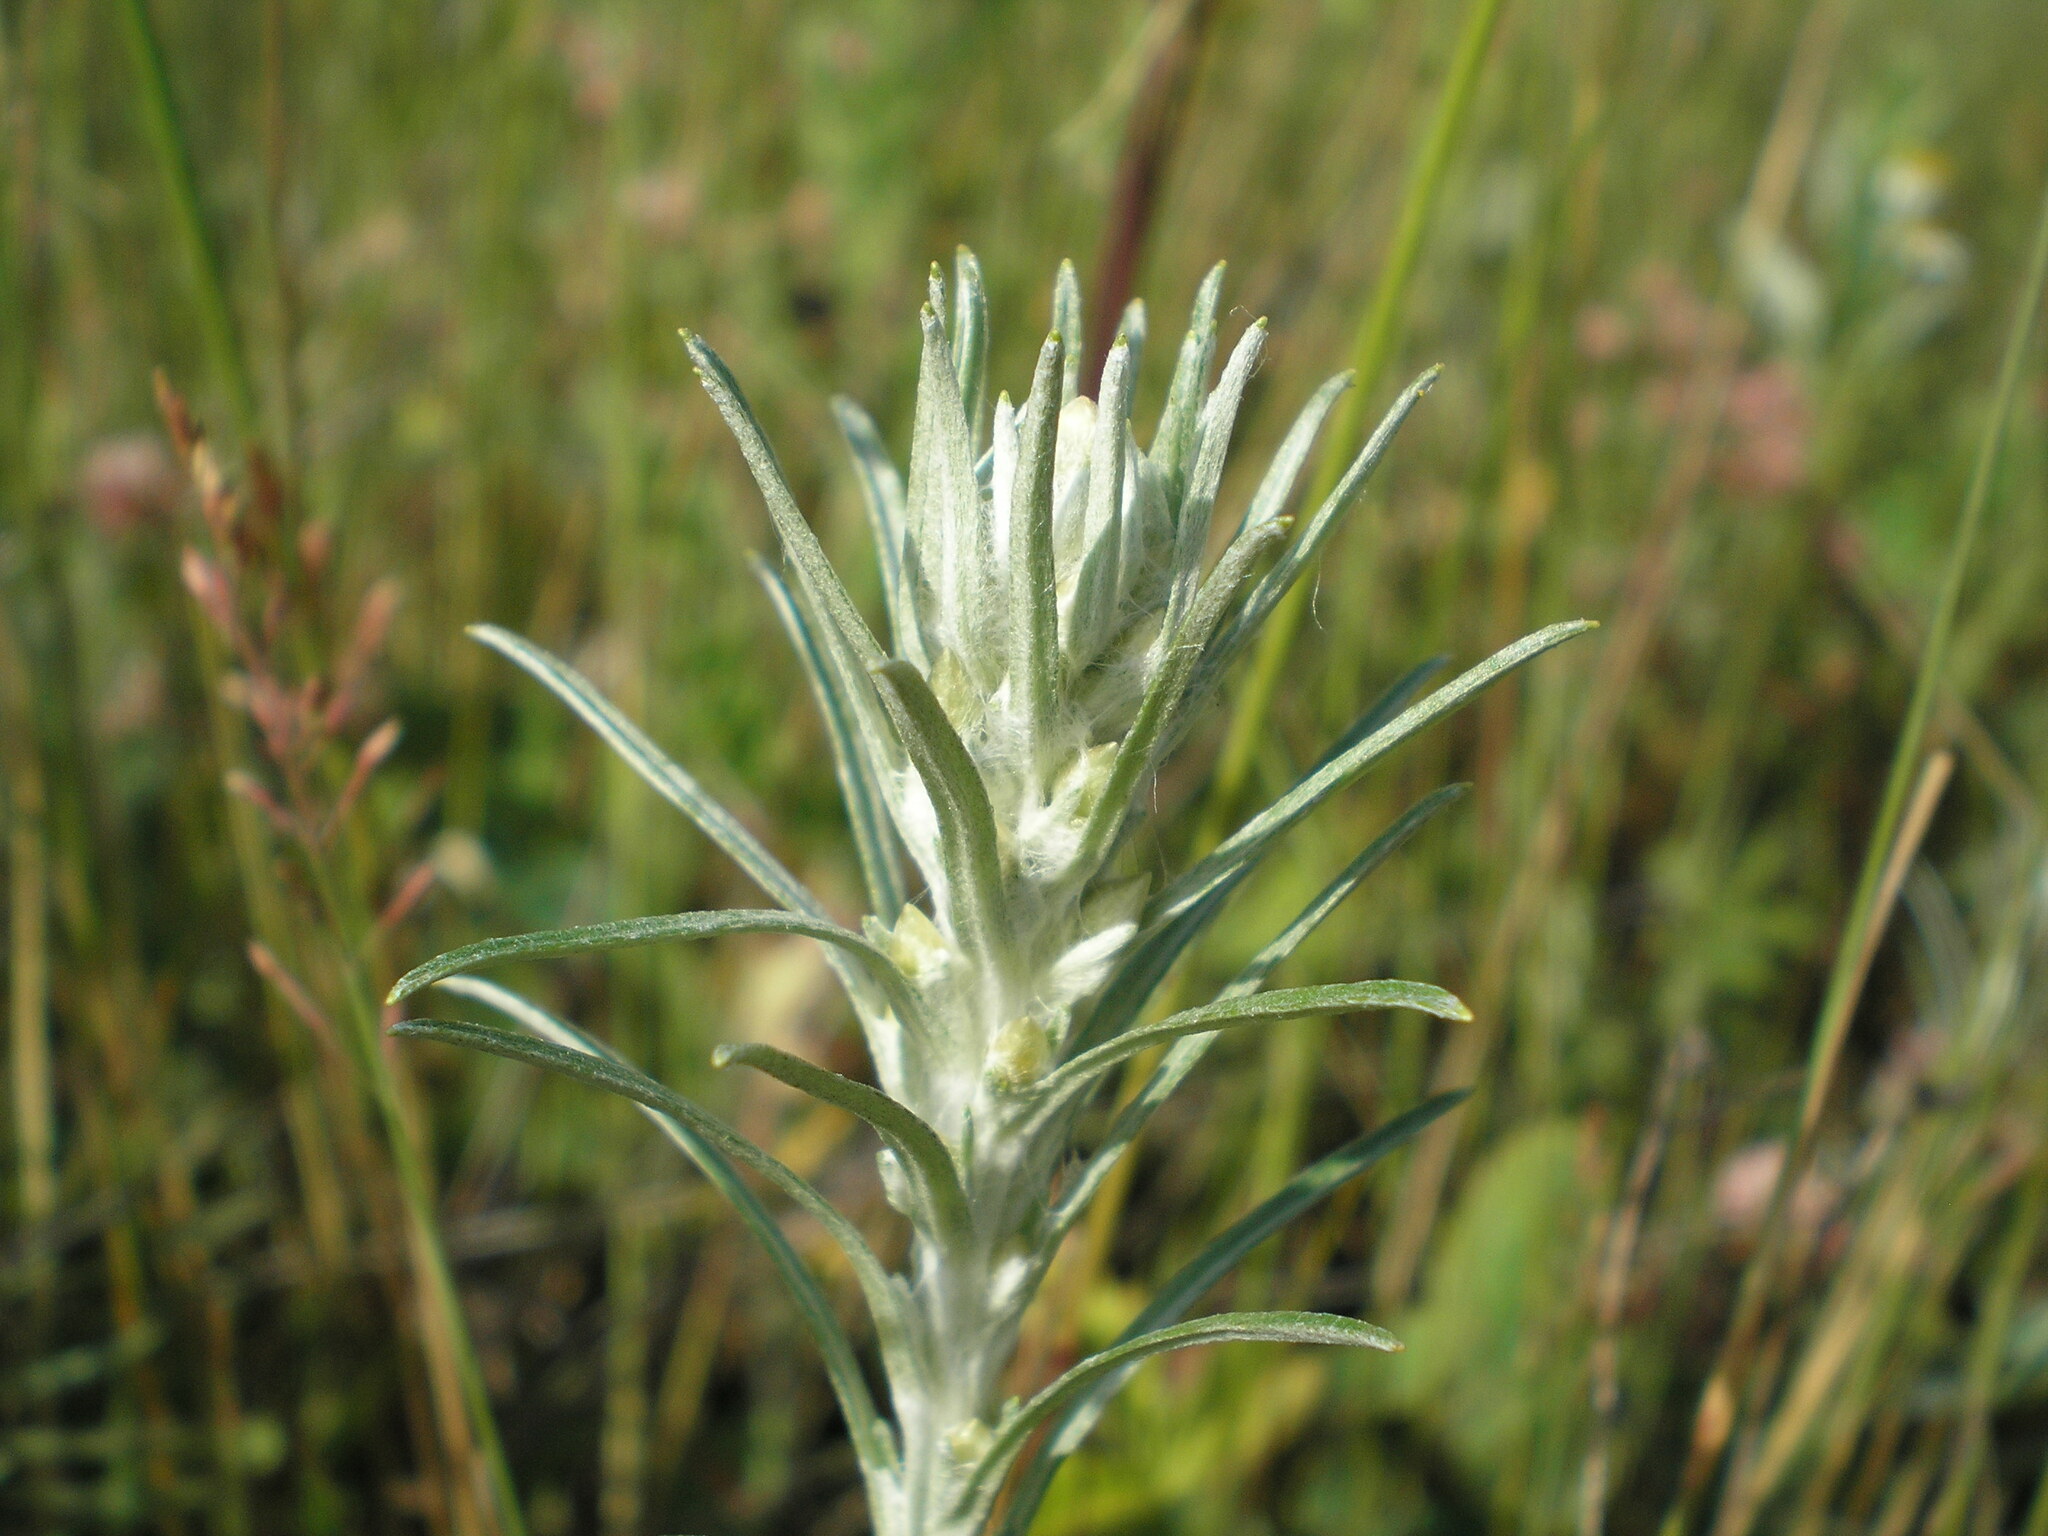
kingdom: Plantae
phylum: Tracheophyta
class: Magnoliopsida
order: Asterales
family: Asteraceae
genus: Omalotheca
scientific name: Omalotheca sylvatica
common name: Heath cudweed
